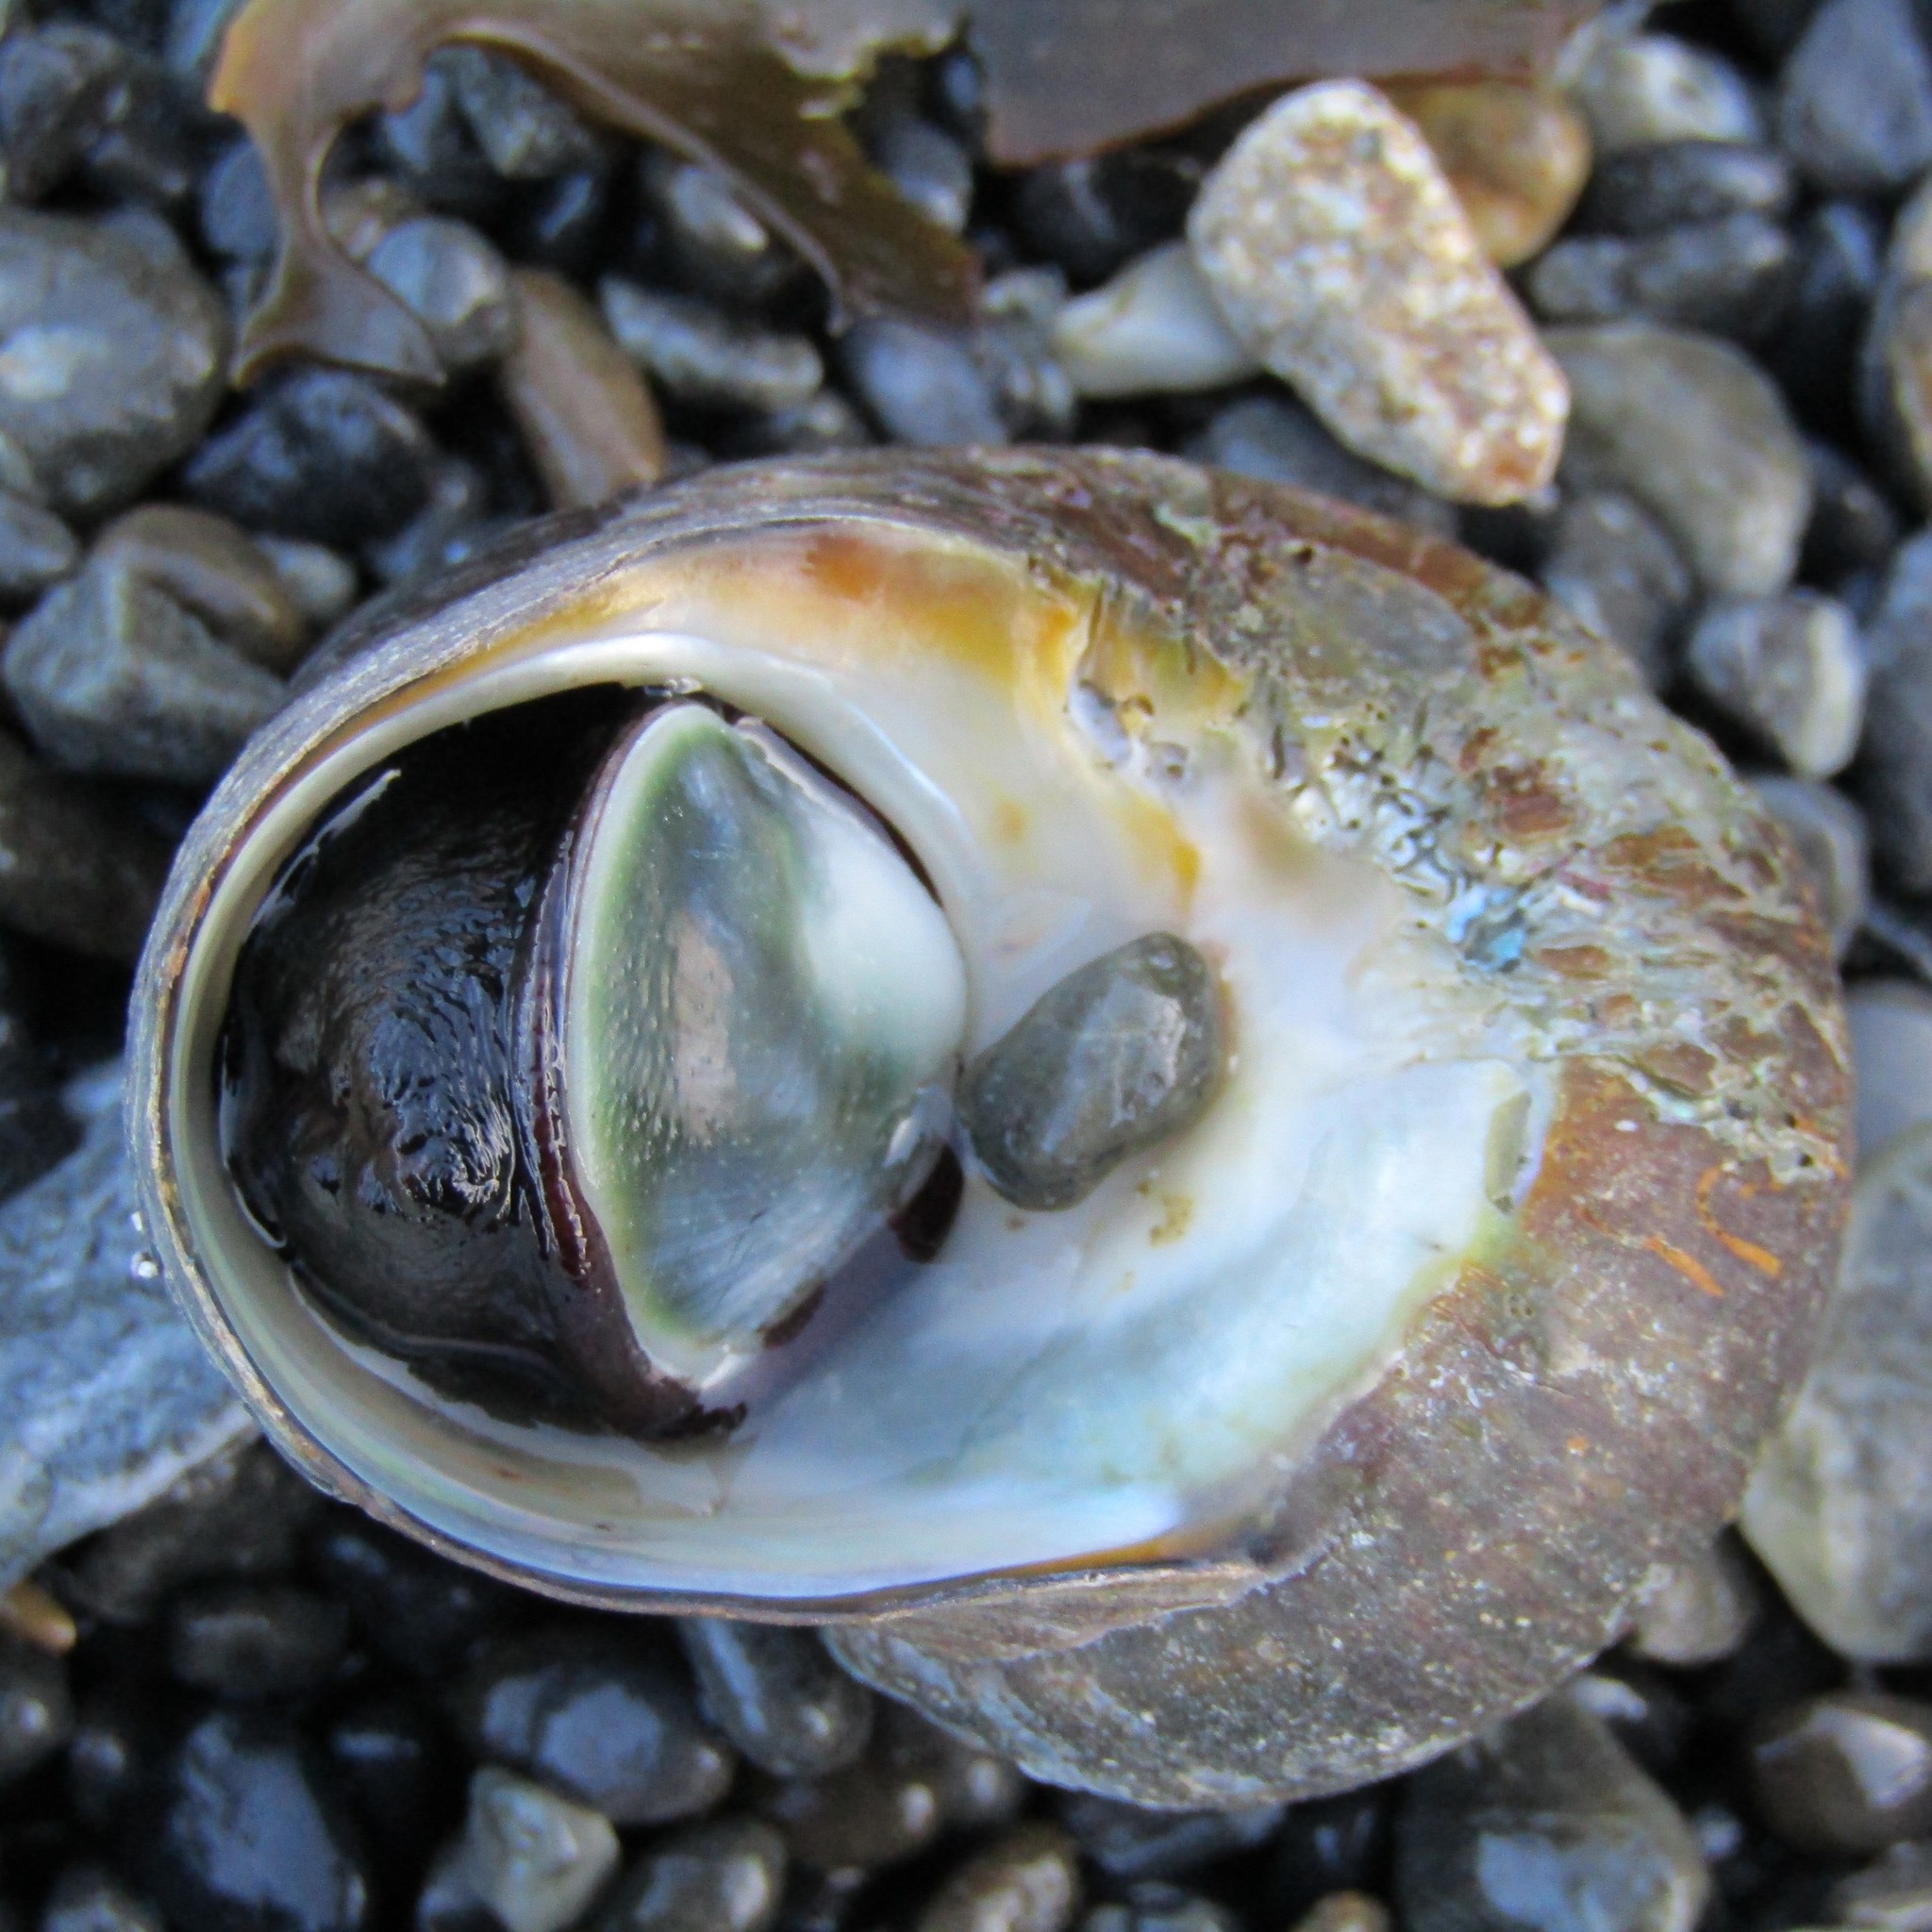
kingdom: Animalia
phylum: Mollusca
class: Gastropoda
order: Trochida
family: Turbinidae
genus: Lunella
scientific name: Lunella smaragda
